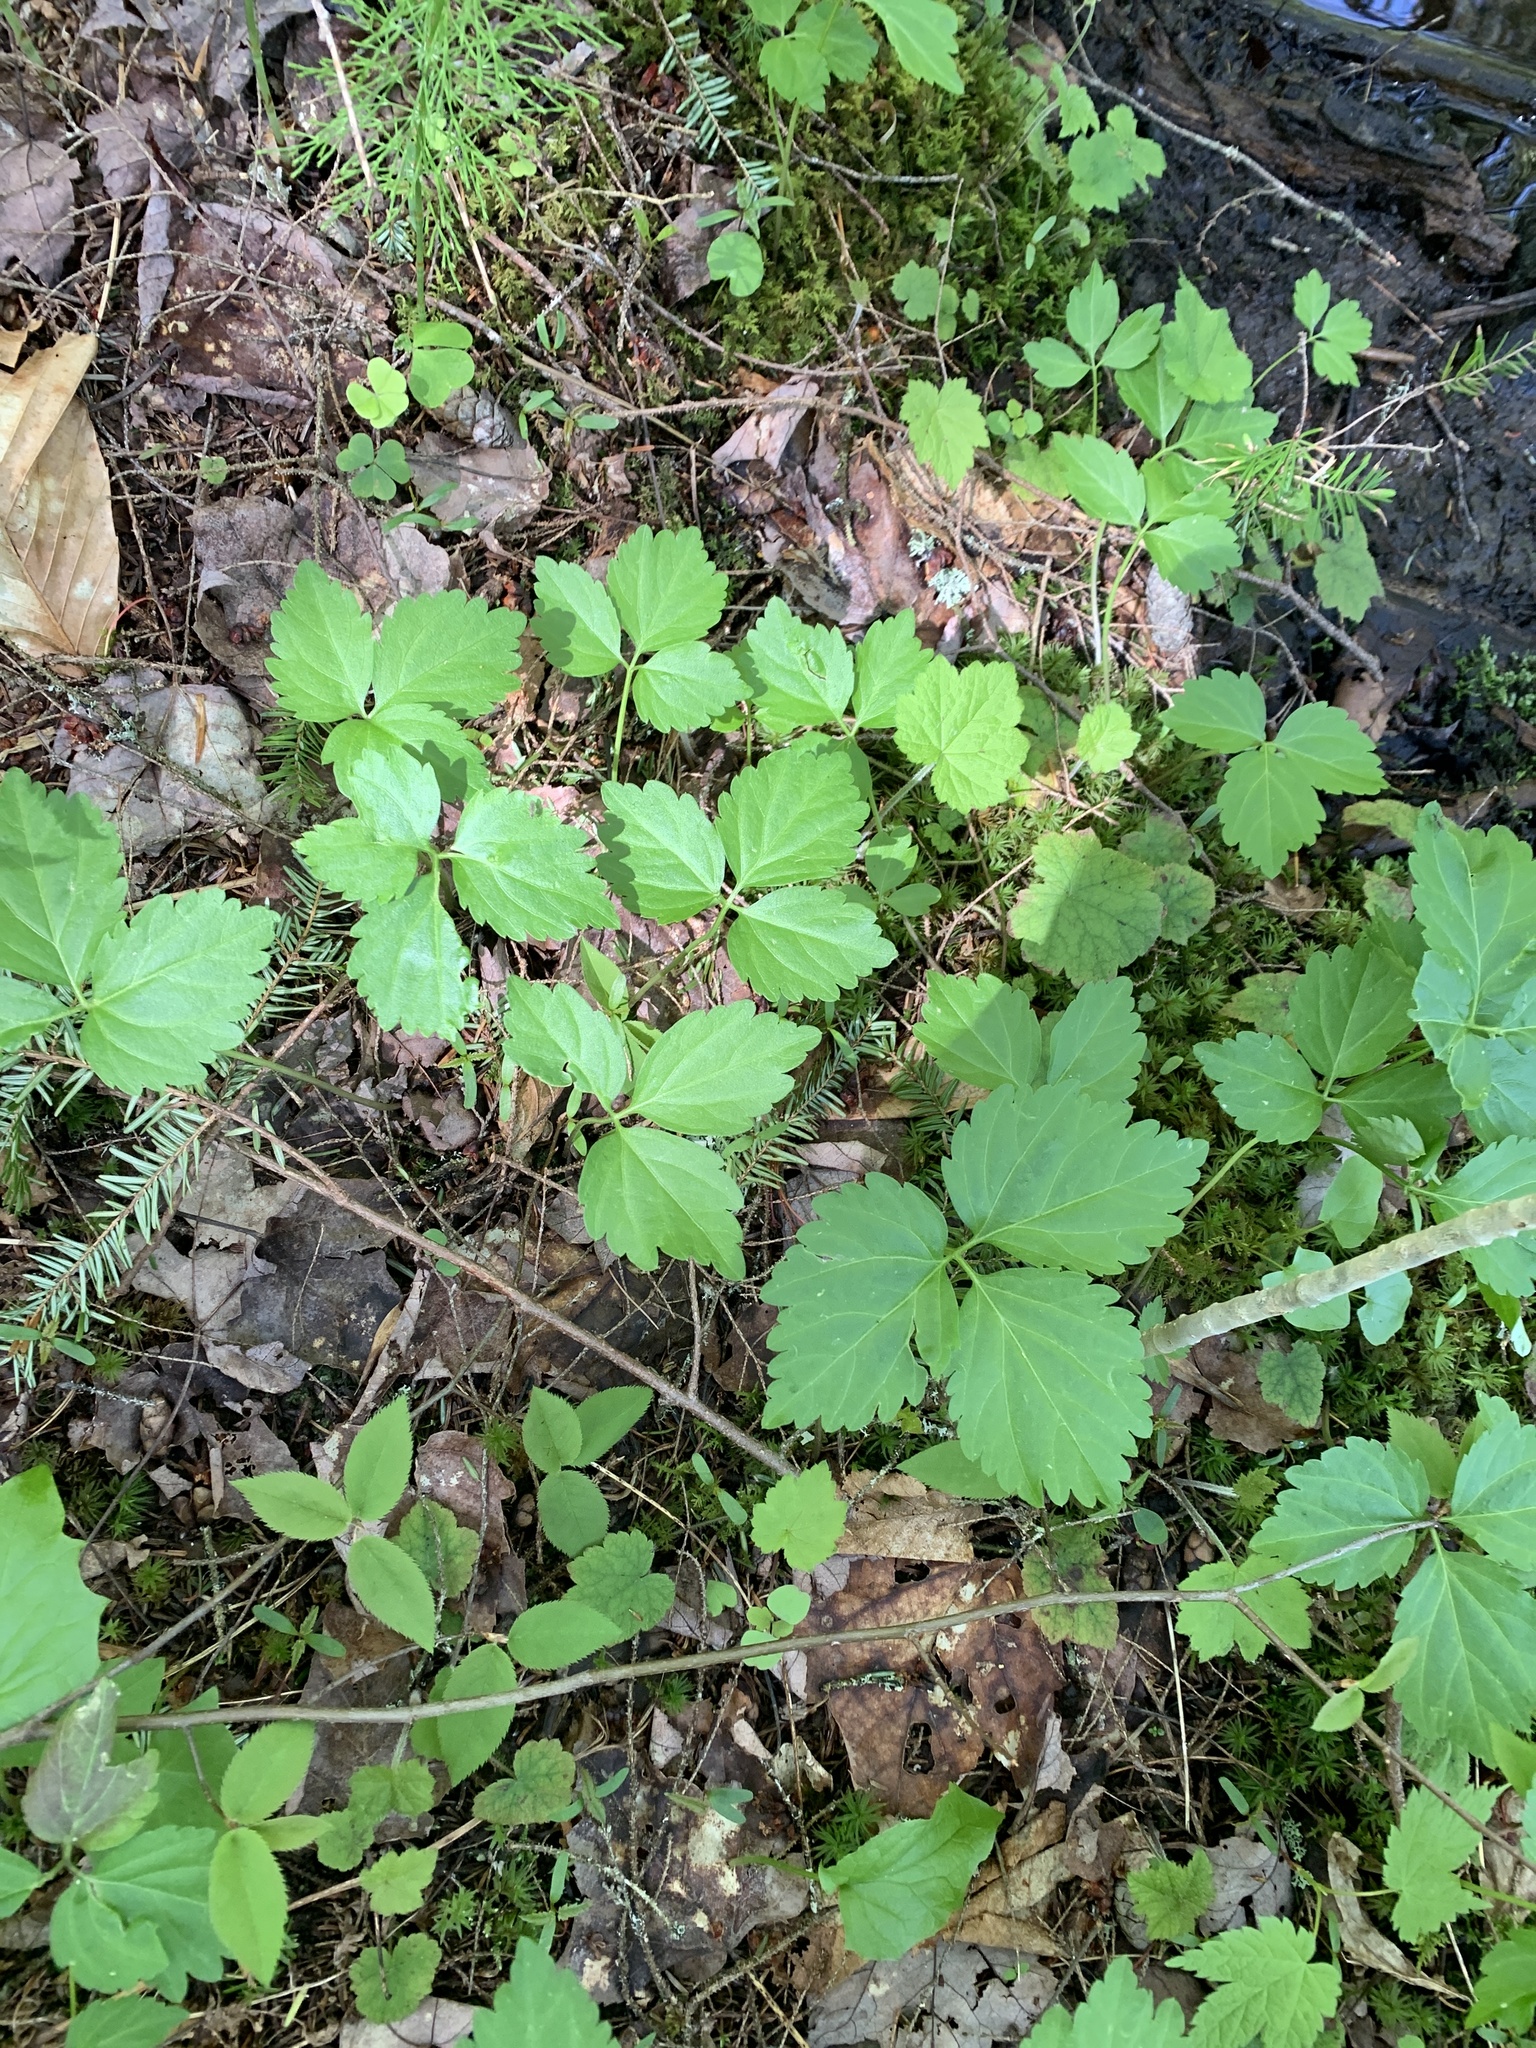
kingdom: Plantae
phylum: Tracheophyta
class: Magnoliopsida
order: Brassicales
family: Brassicaceae
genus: Cardamine
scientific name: Cardamine diphylla
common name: Broad-leaved toothwort
